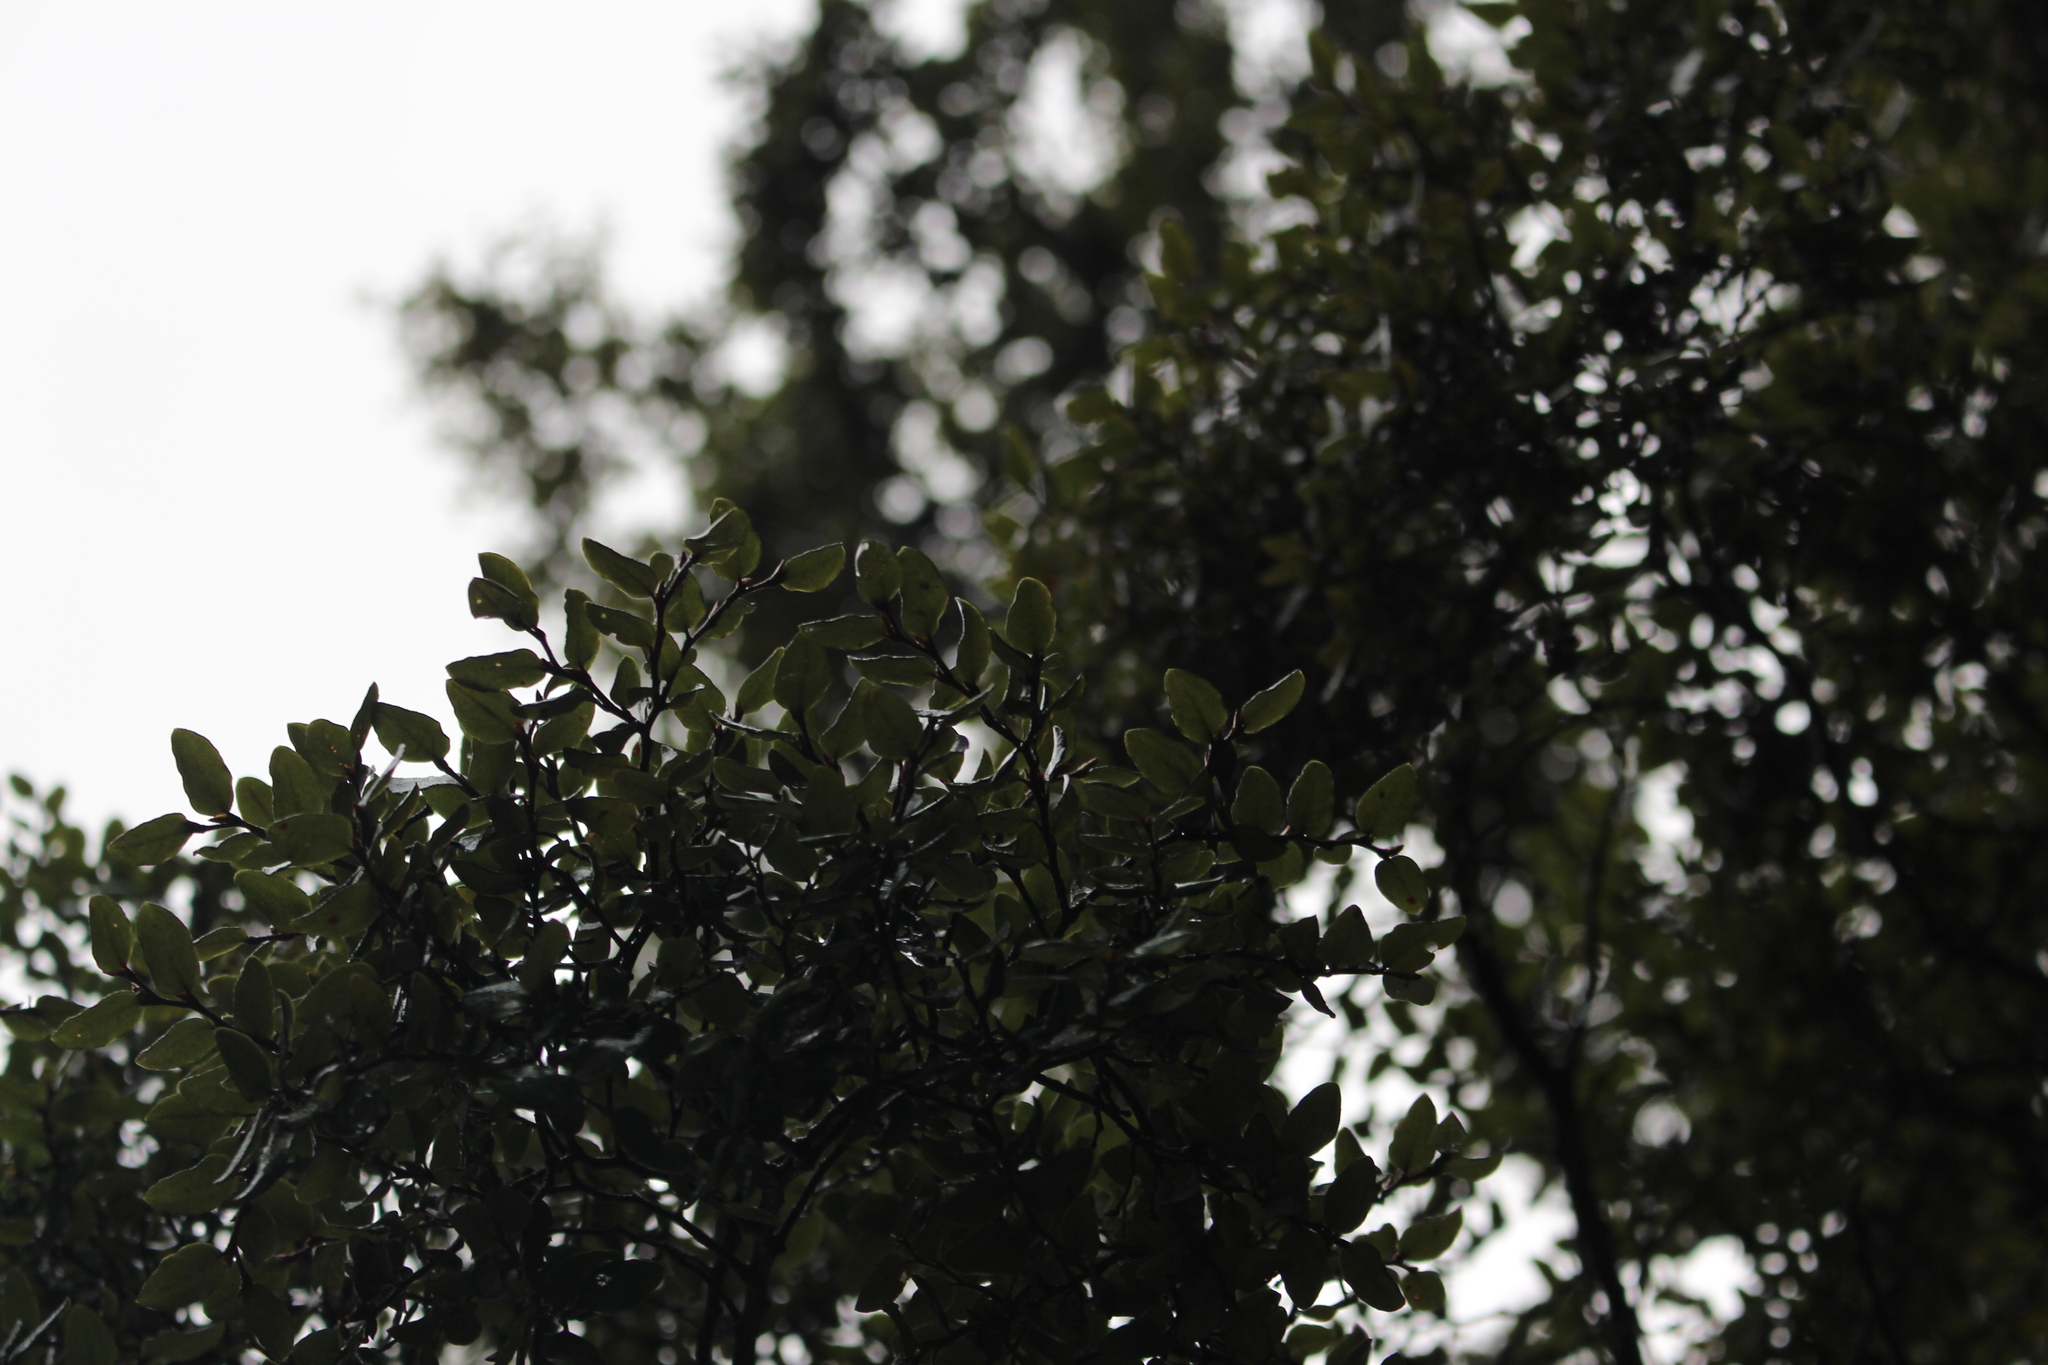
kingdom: Plantae
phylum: Tracheophyta
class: Magnoliopsida
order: Fagales
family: Nothofagaceae
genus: Nothofagus
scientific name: Nothofagus cliffortioides
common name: Mountain beech
